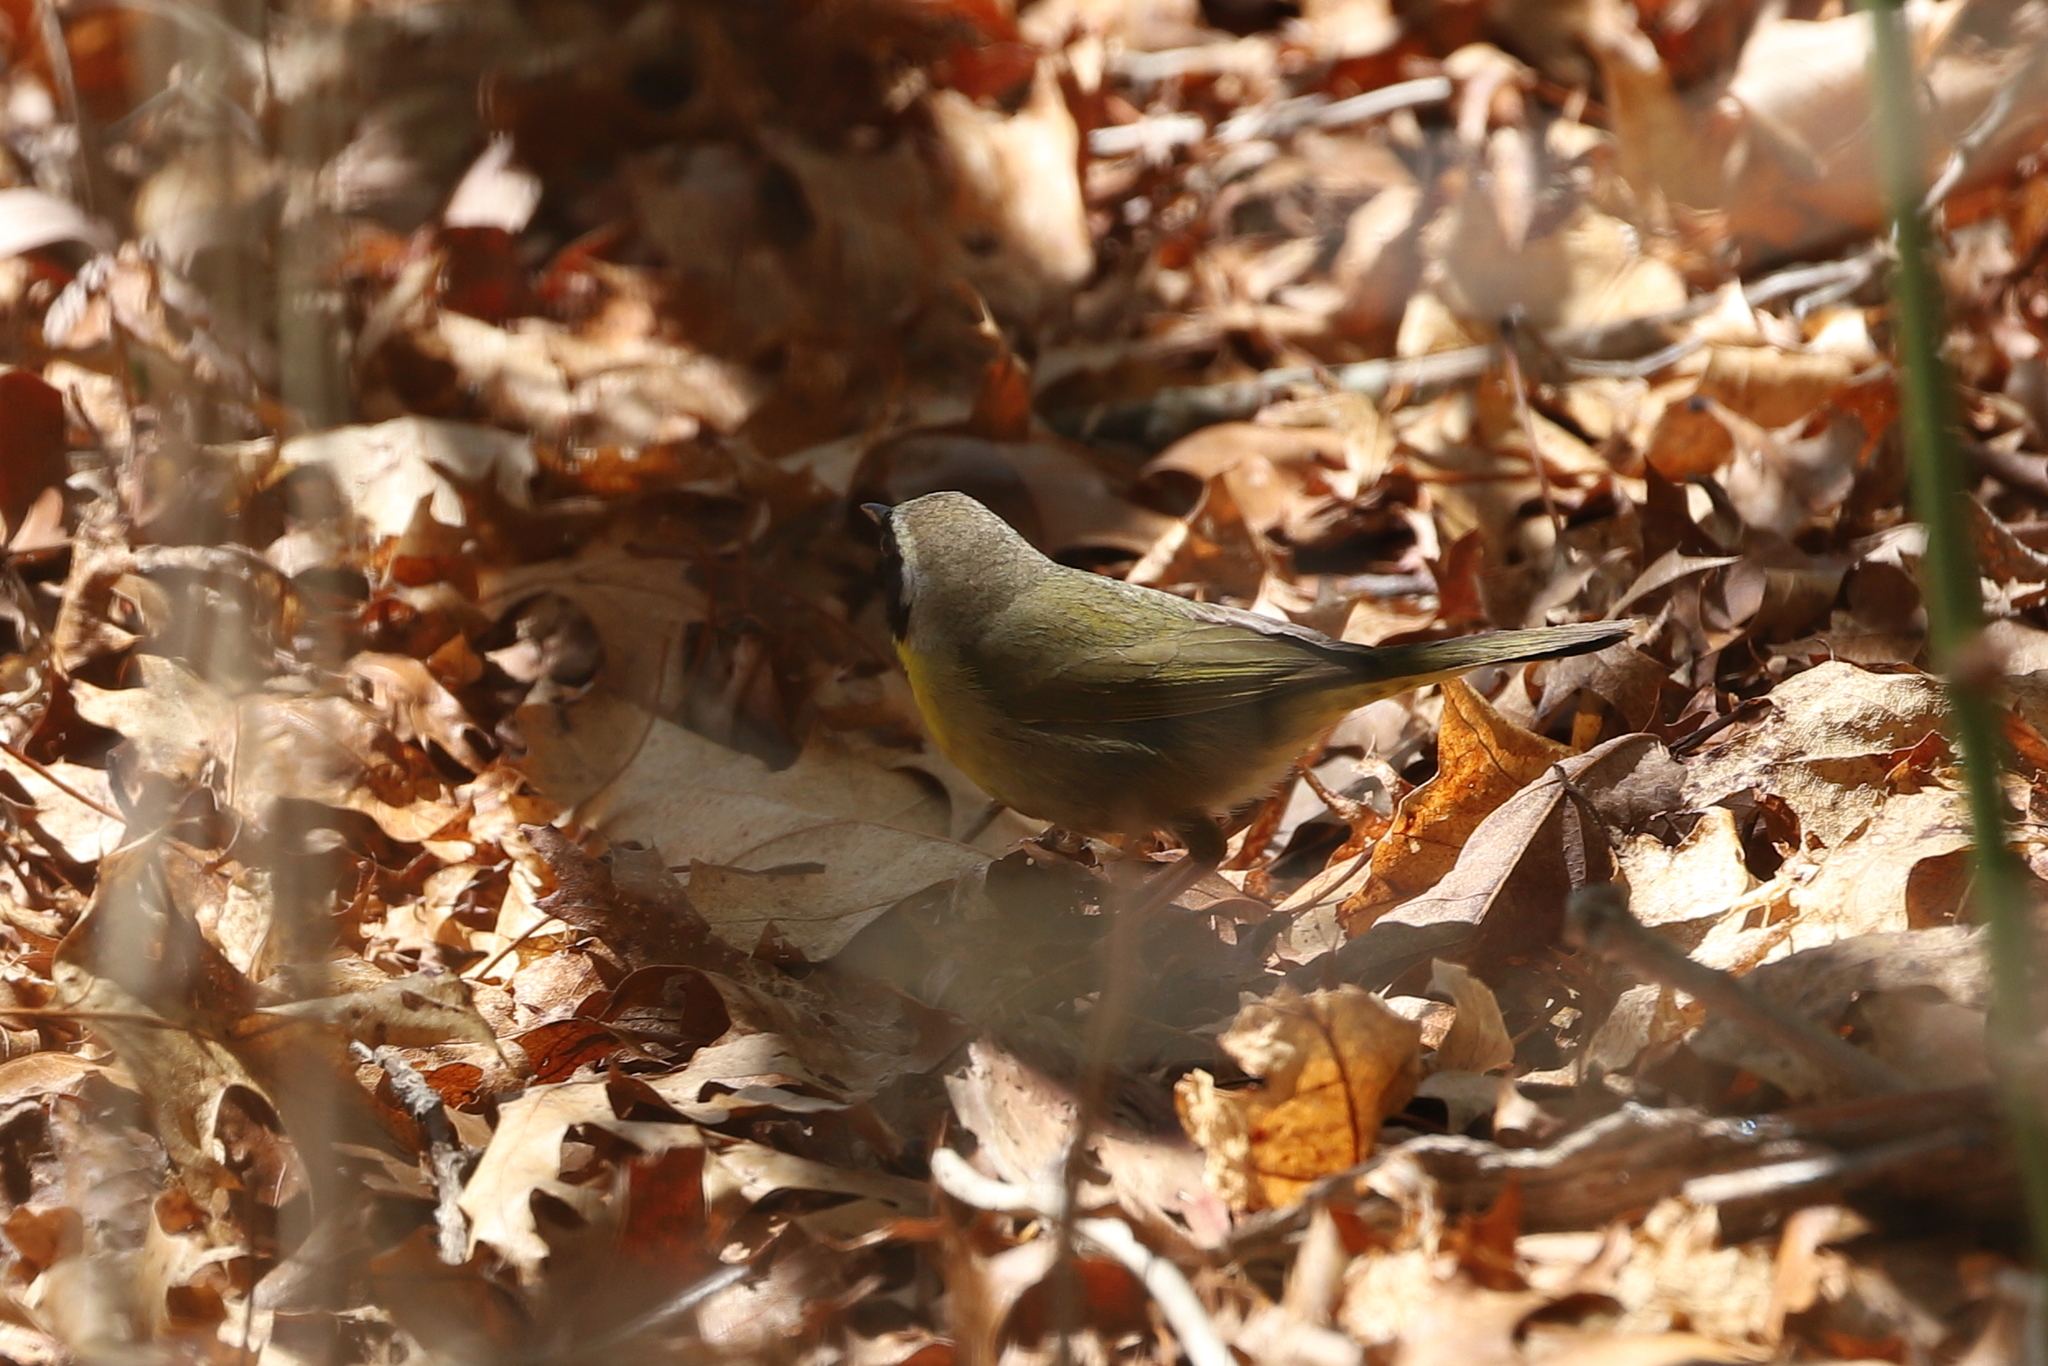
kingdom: Animalia
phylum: Chordata
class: Aves
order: Passeriformes
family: Parulidae
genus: Geothlypis
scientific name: Geothlypis trichas
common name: Common yellowthroat
